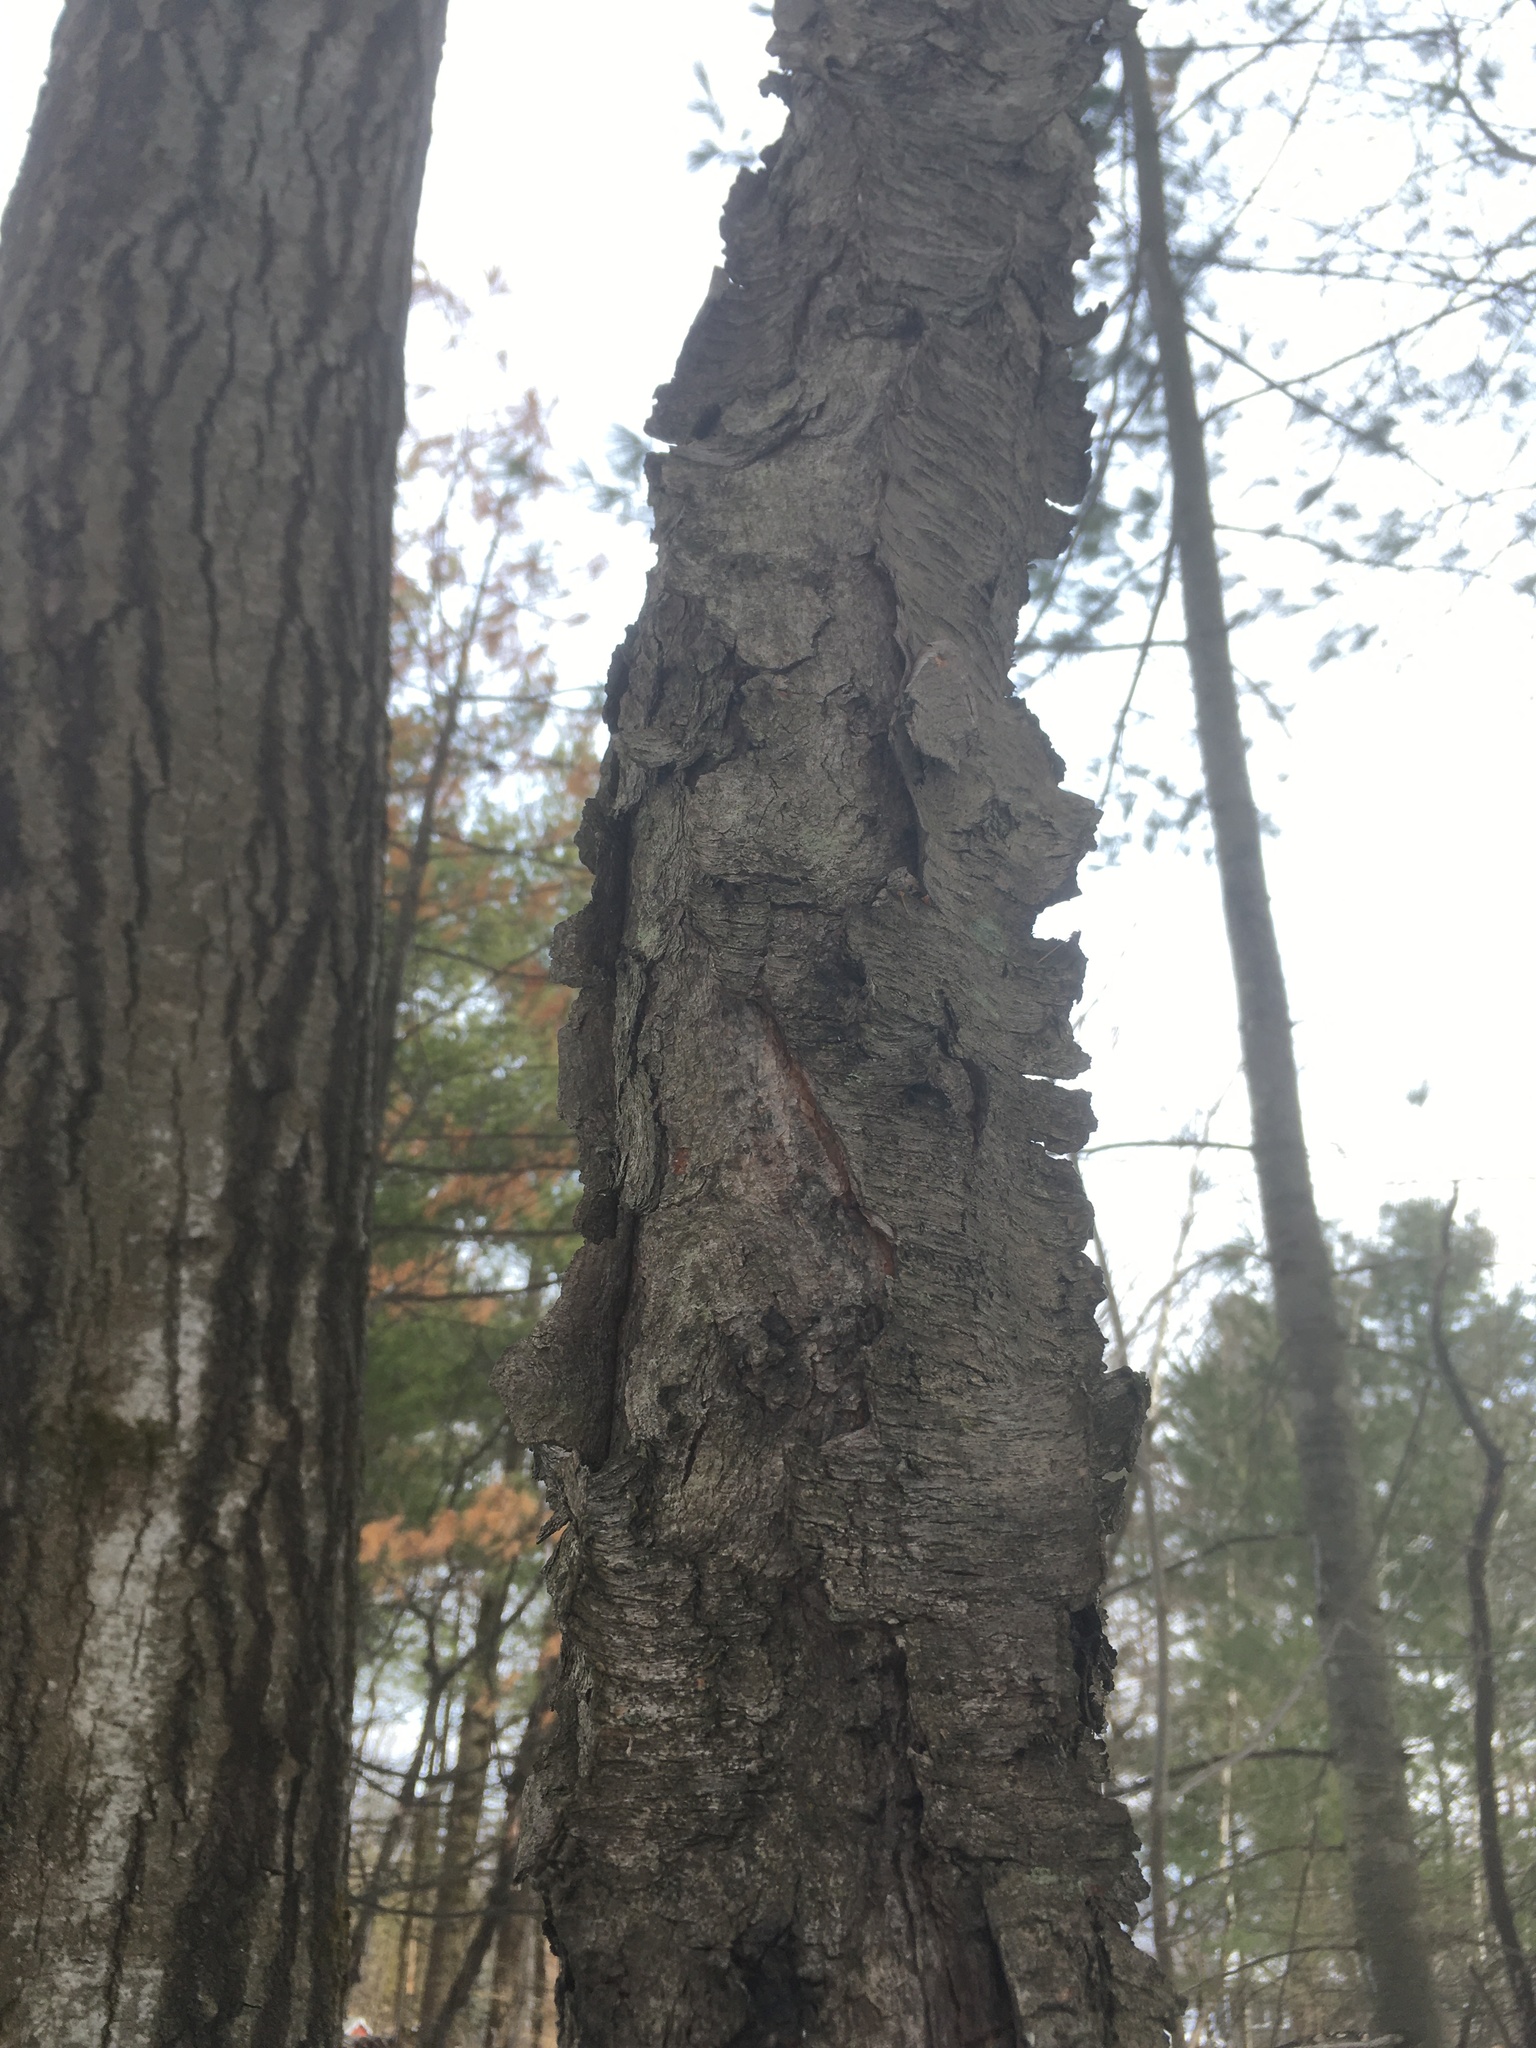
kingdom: Plantae
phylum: Tracheophyta
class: Magnoliopsida
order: Rosales
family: Rosaceae
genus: Prunus
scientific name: Prunus serotina
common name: Black cherry
